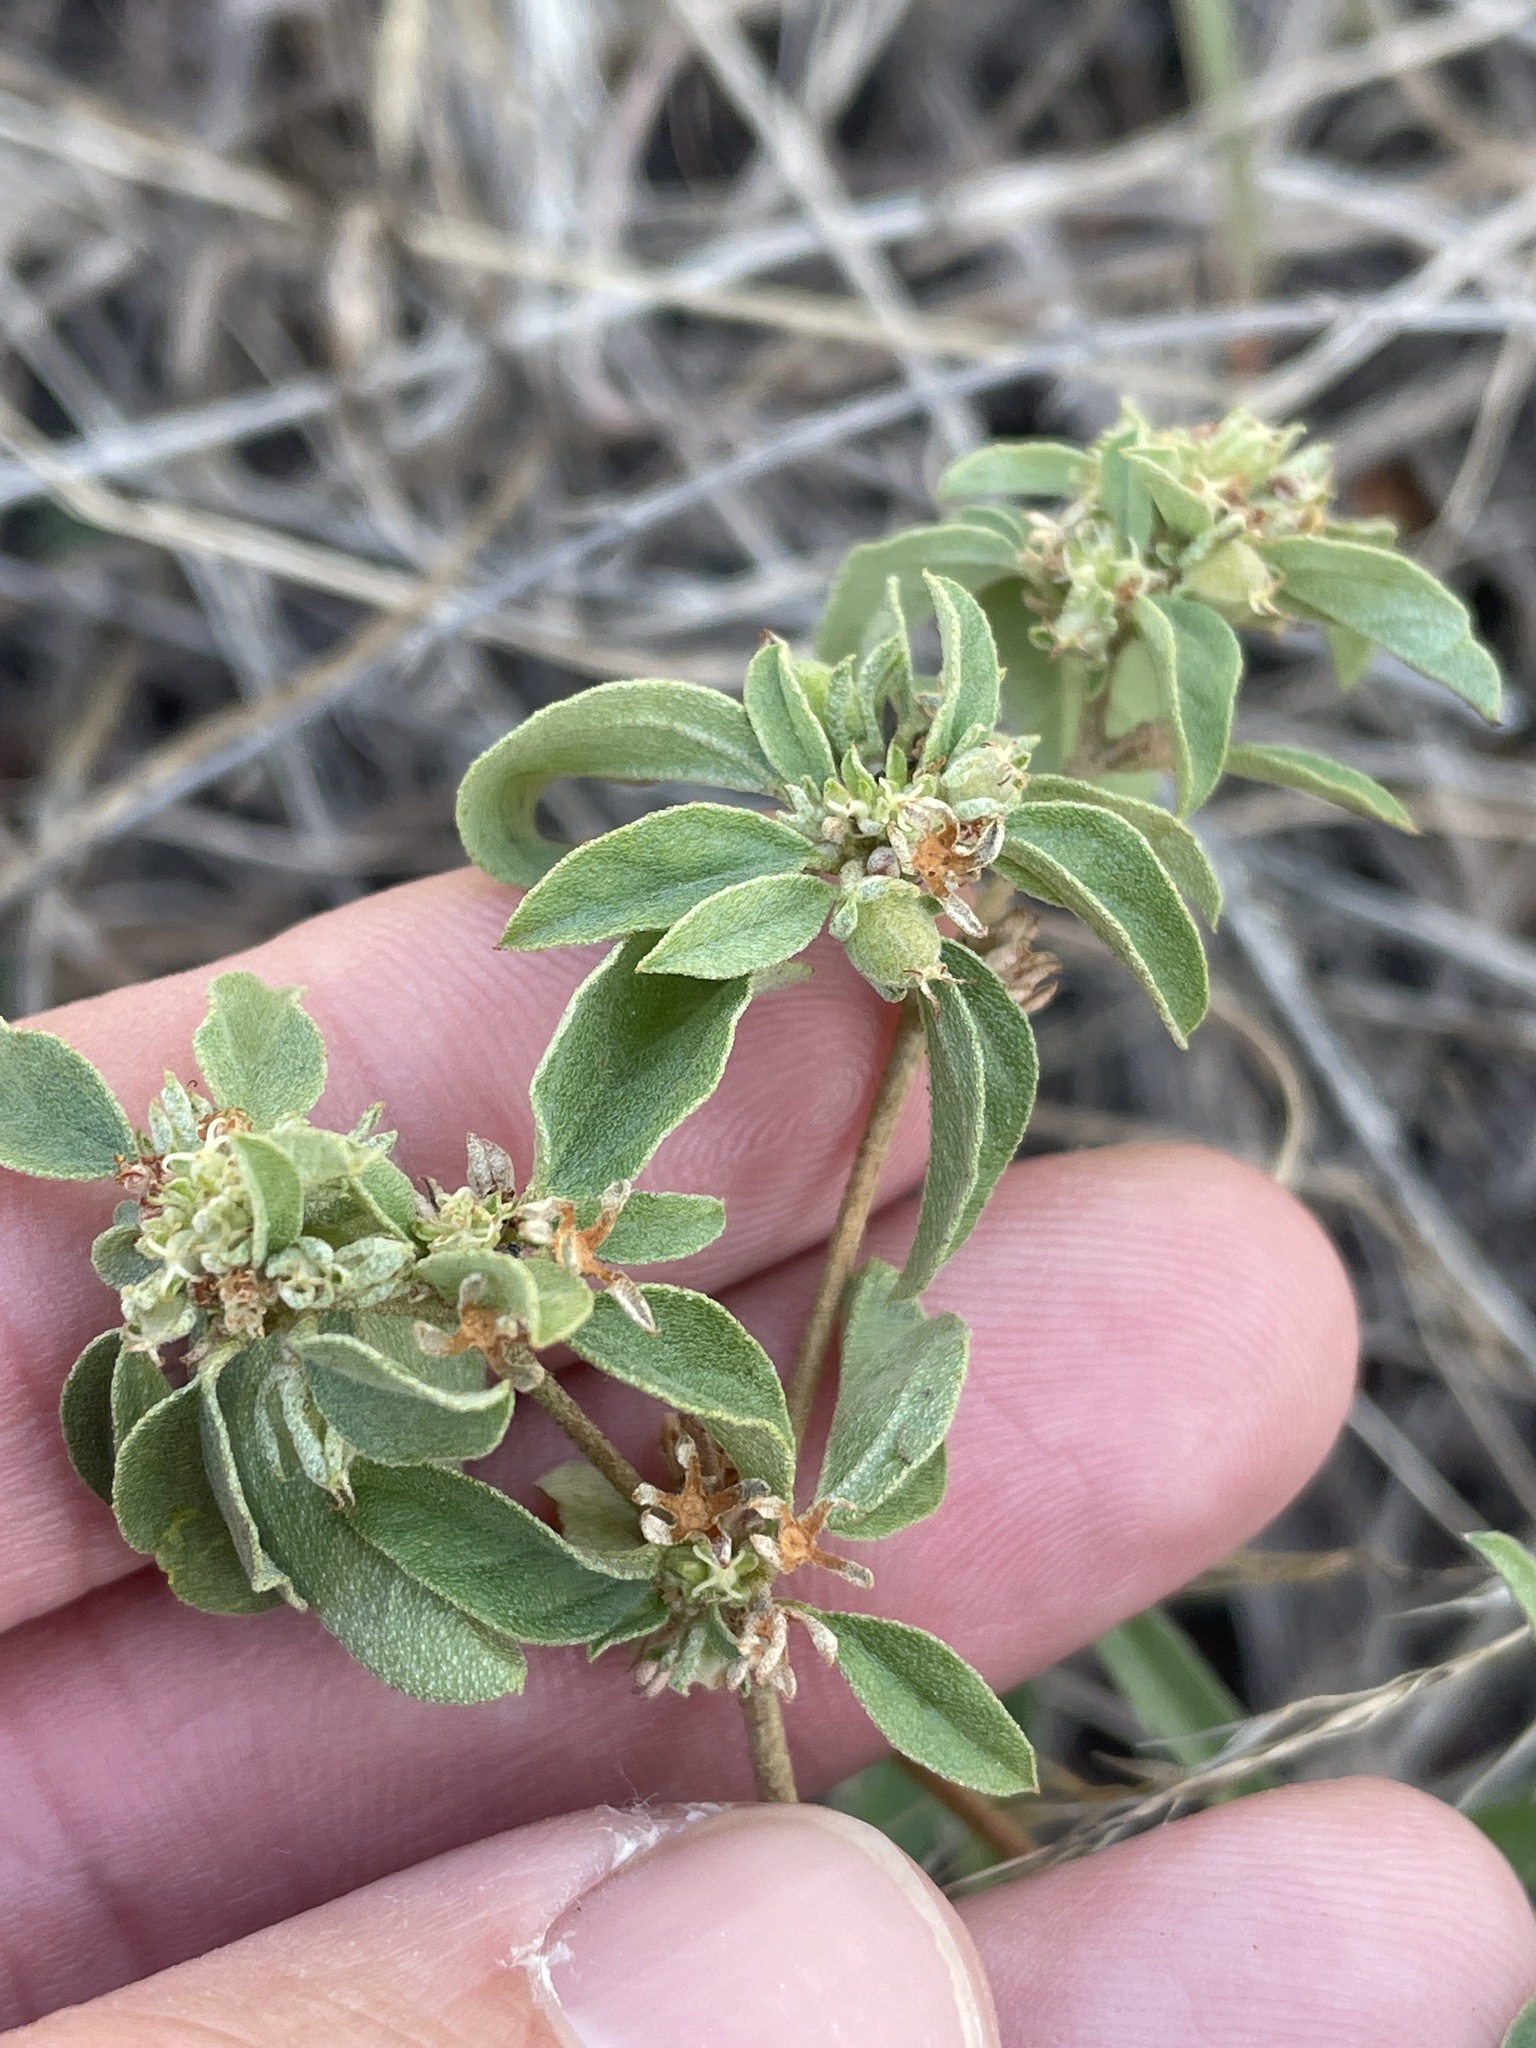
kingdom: Plantae
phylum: Tracheophyta
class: Magnoliopsida
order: Malpighiales
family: Euphorbiaceae
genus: Croton
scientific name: Croton monanthogynus
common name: One-seed croton
